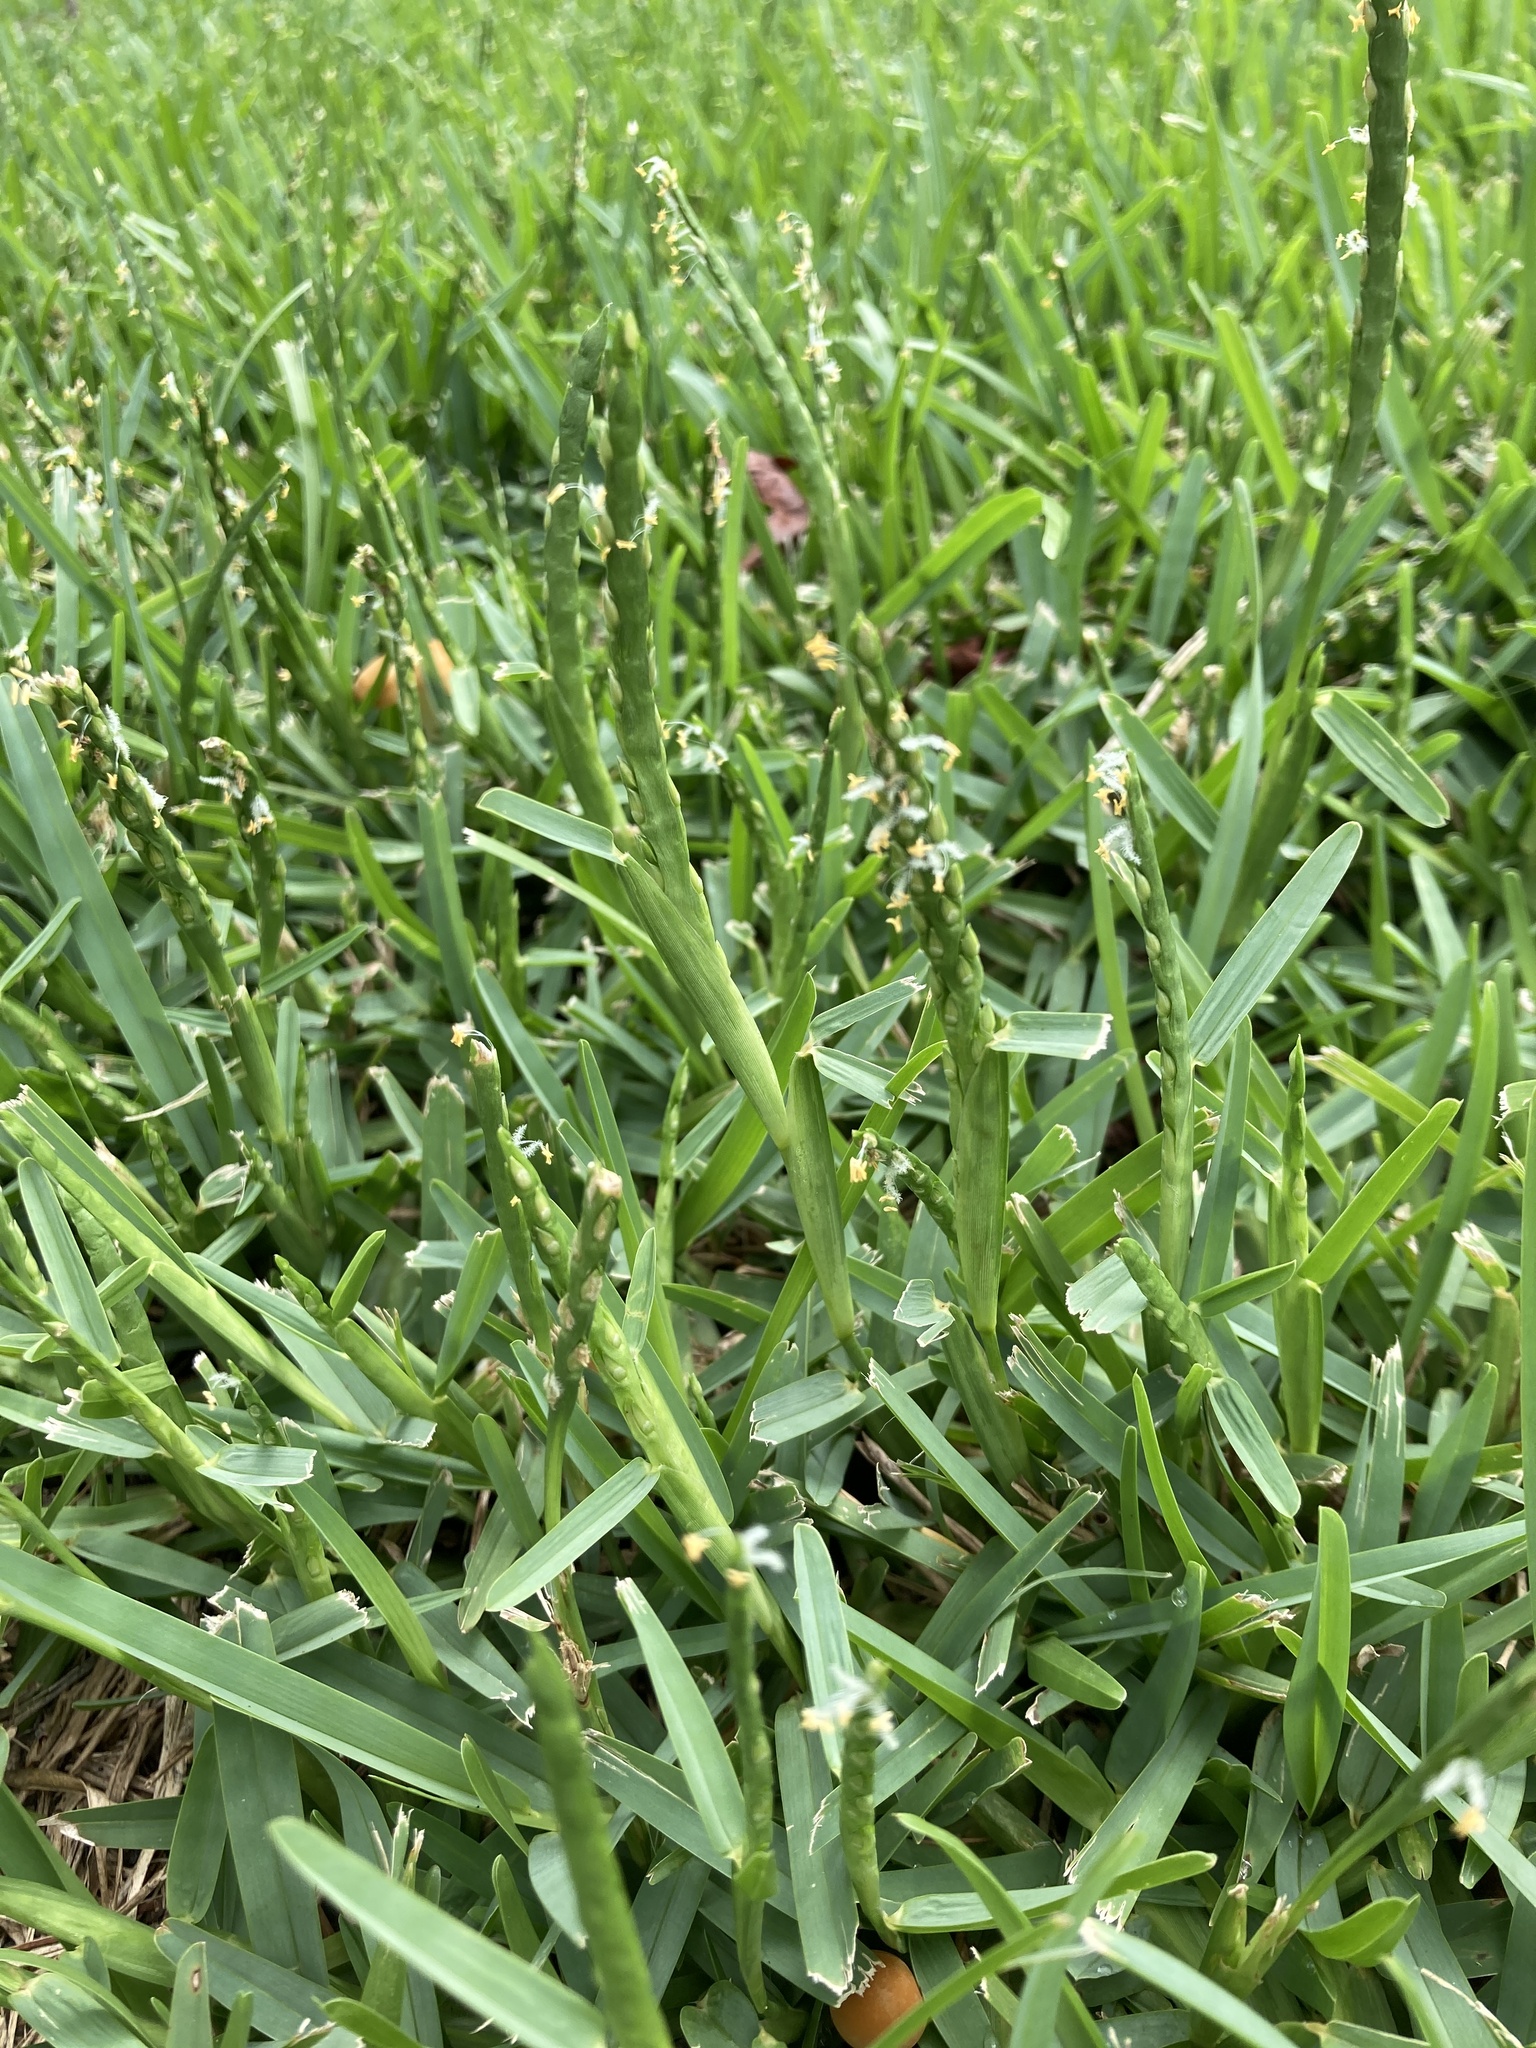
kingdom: Plantae
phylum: Tracheophyta
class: Liliopsida
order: Poales
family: Poaceae
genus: Stenotaphrum
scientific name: Stenotaphrum secundatum
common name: St. augustine grass
